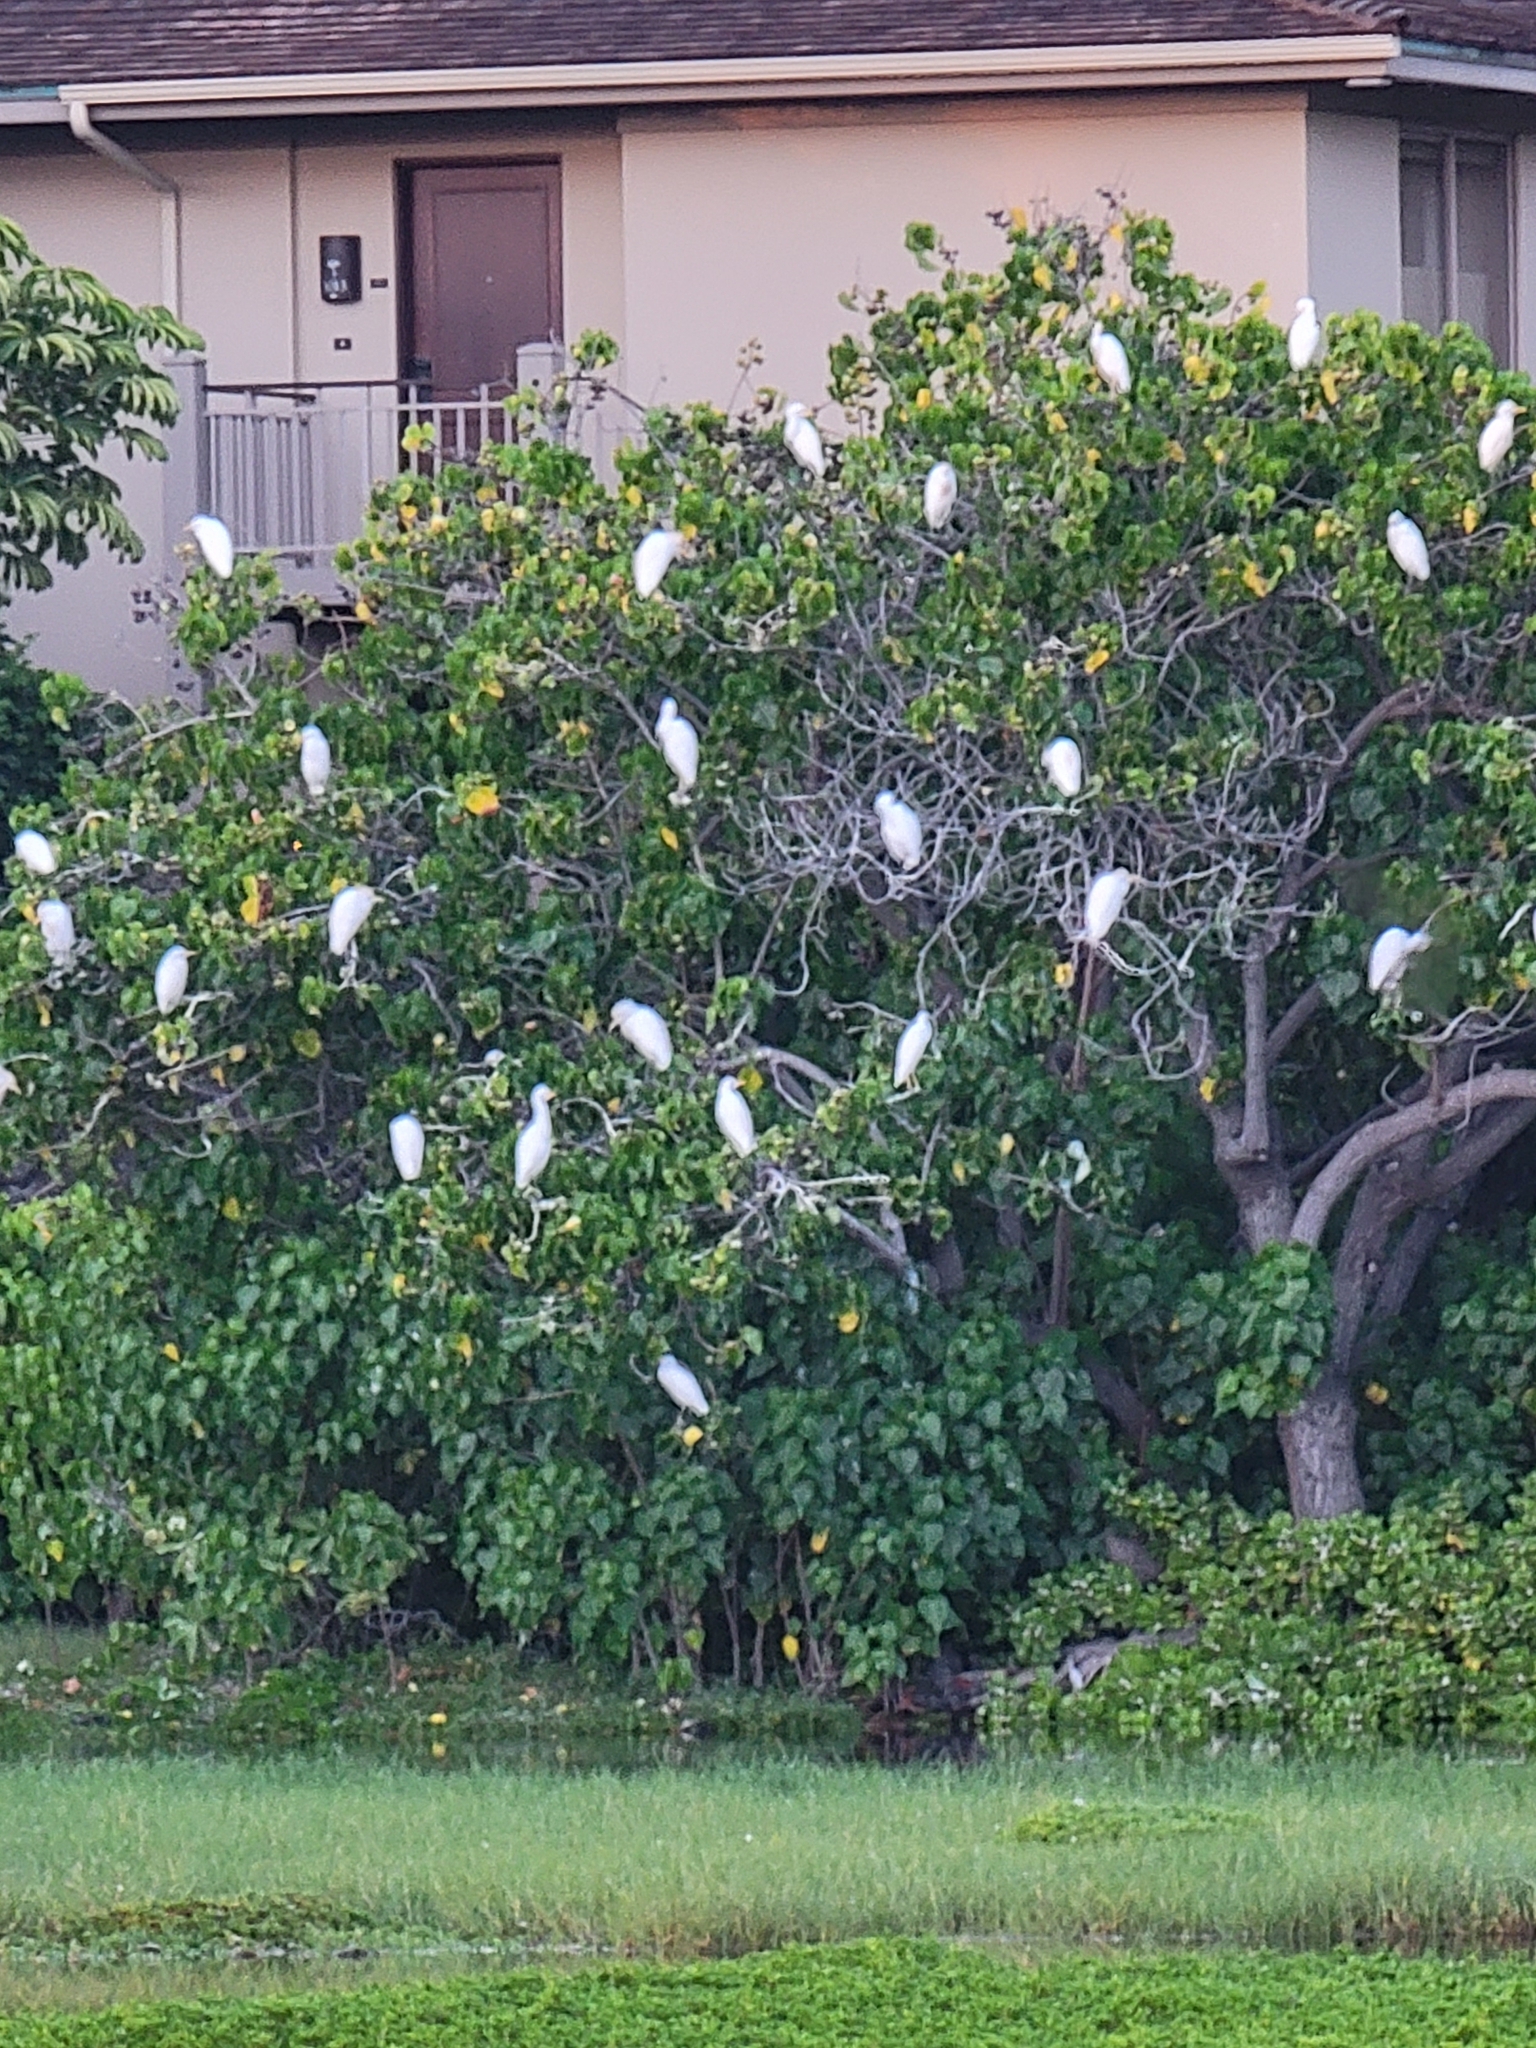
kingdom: Animalia
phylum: Chordata
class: Aves
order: Pelecaniformes
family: Ardeidae
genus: Bubulcus
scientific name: Bubulcus ibis
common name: Cattle egret
